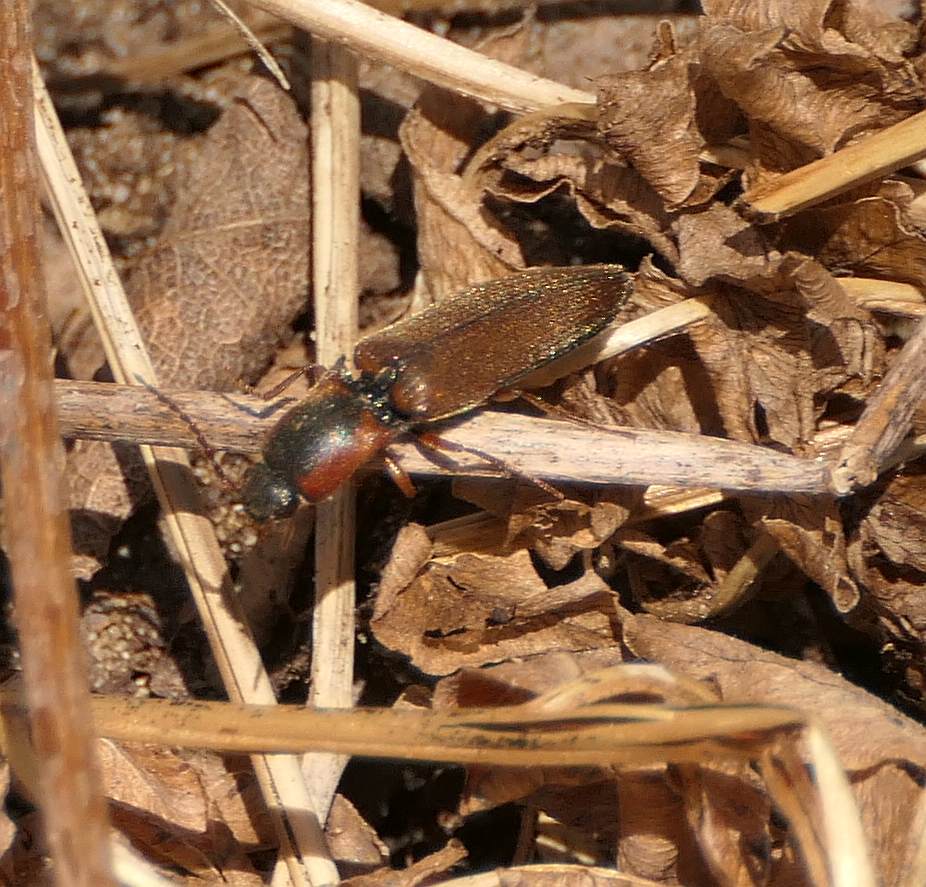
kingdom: Animalia
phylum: Arthropoda
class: Insecta
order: Coleoptera
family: Elateridae
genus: Agriotes
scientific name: Agriotes collaris
